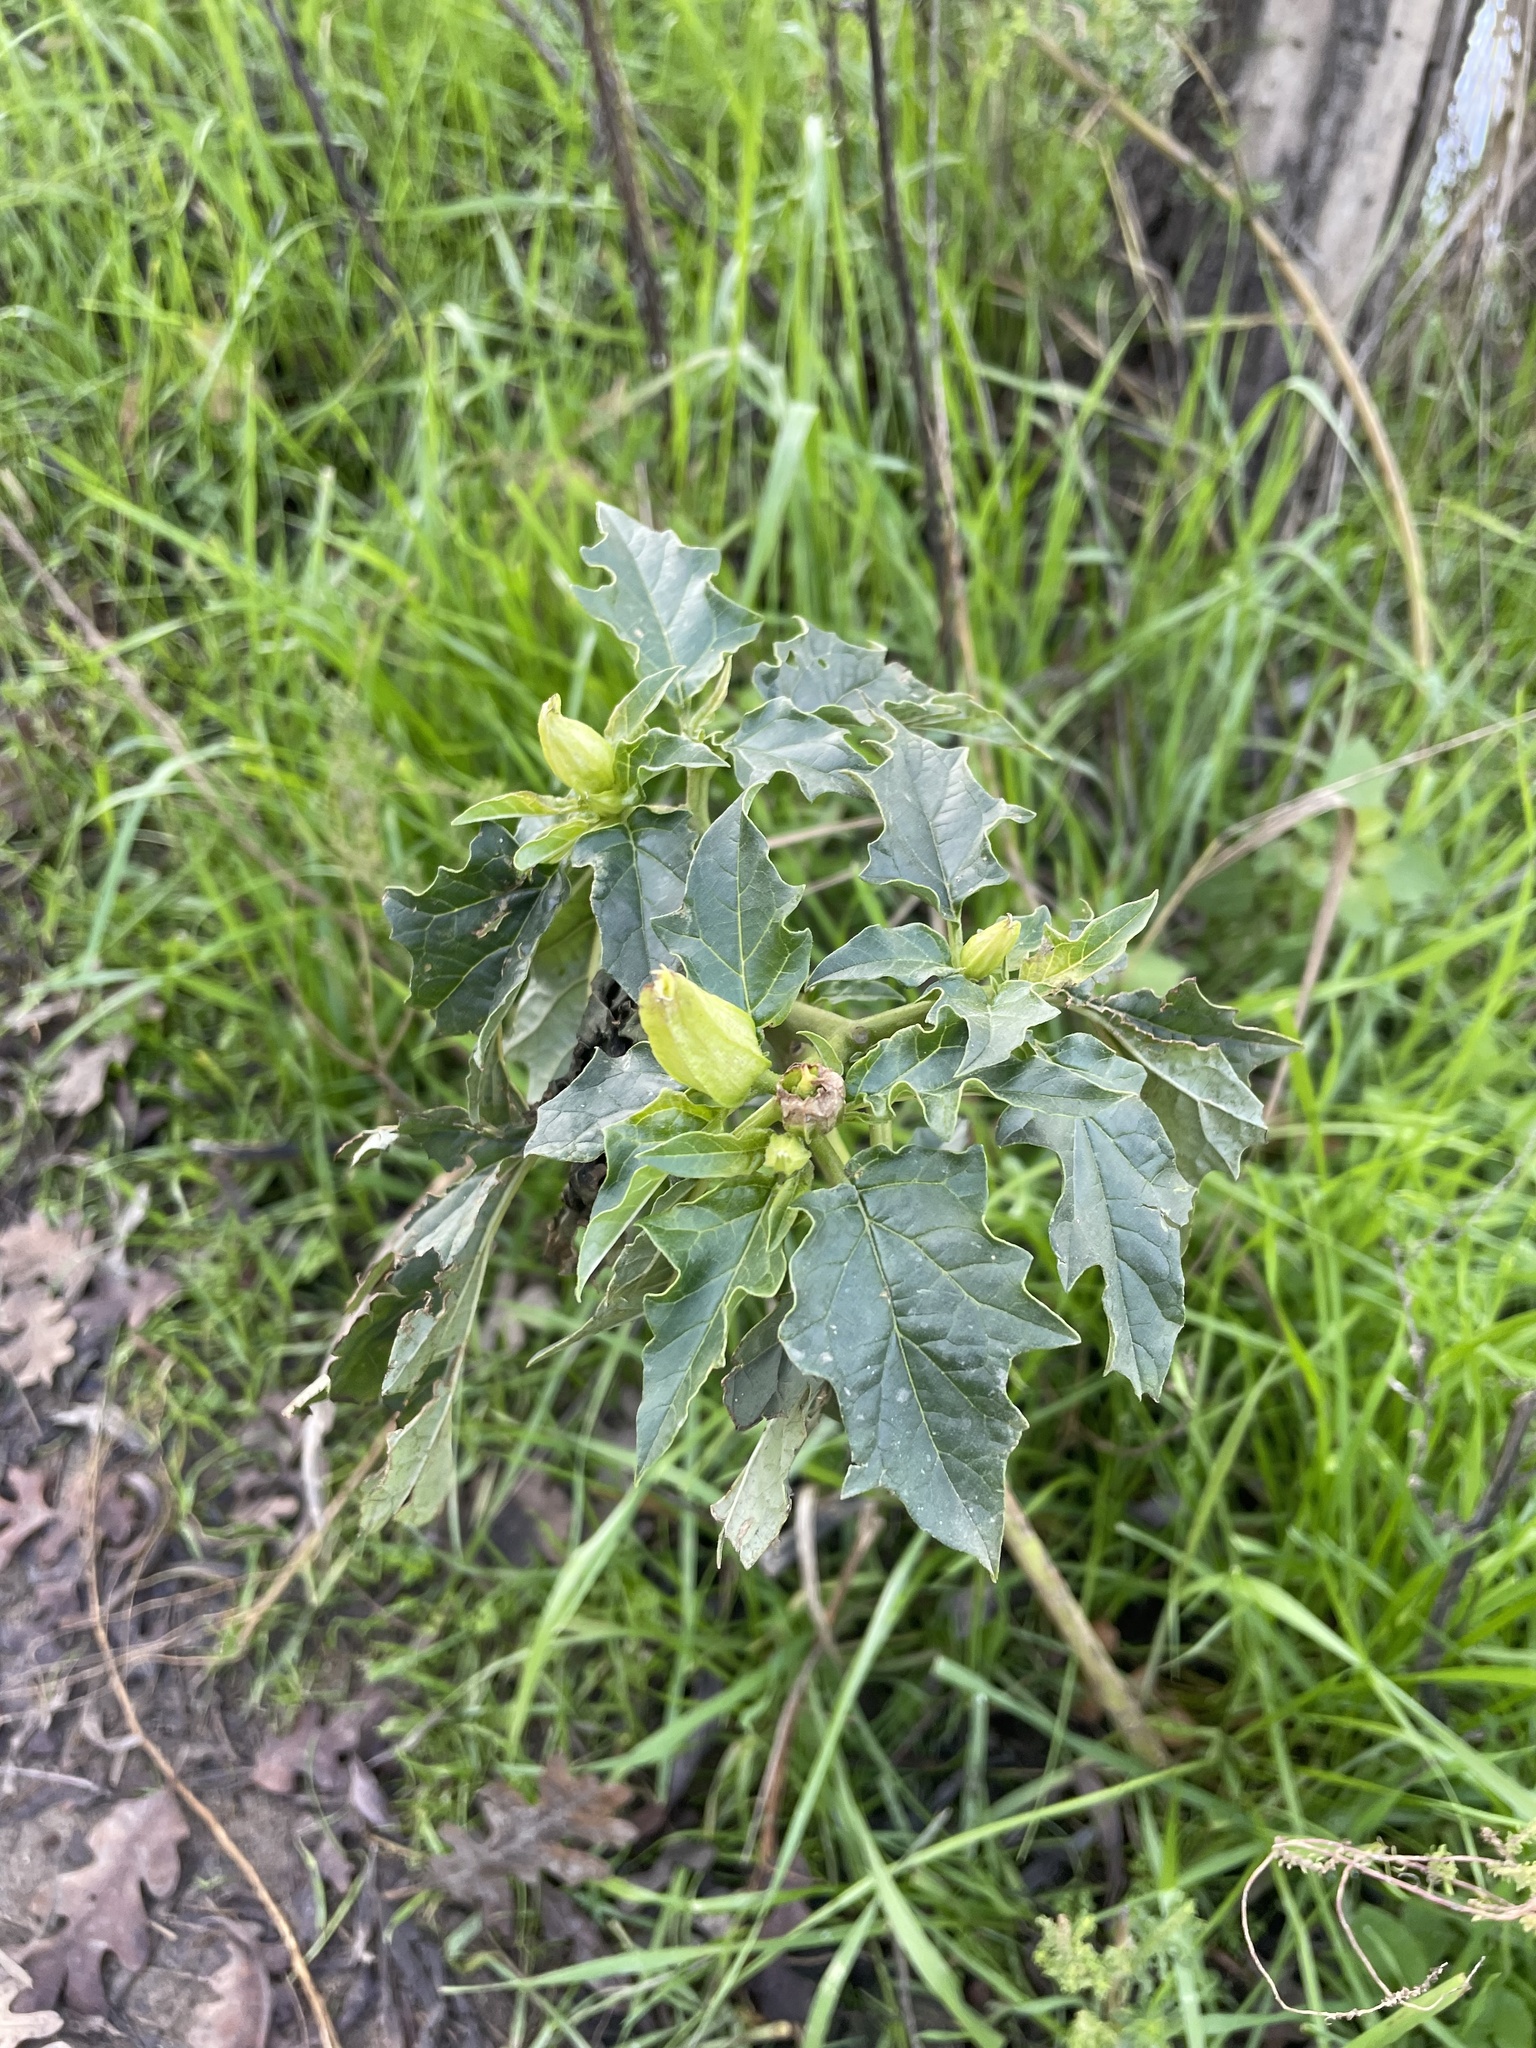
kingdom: Plantae
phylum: Tracheophyta
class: Magnoliopsida
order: Solanales
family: Solanaceae
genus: Datura
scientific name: Datura stramonium
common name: Thorn-apple
